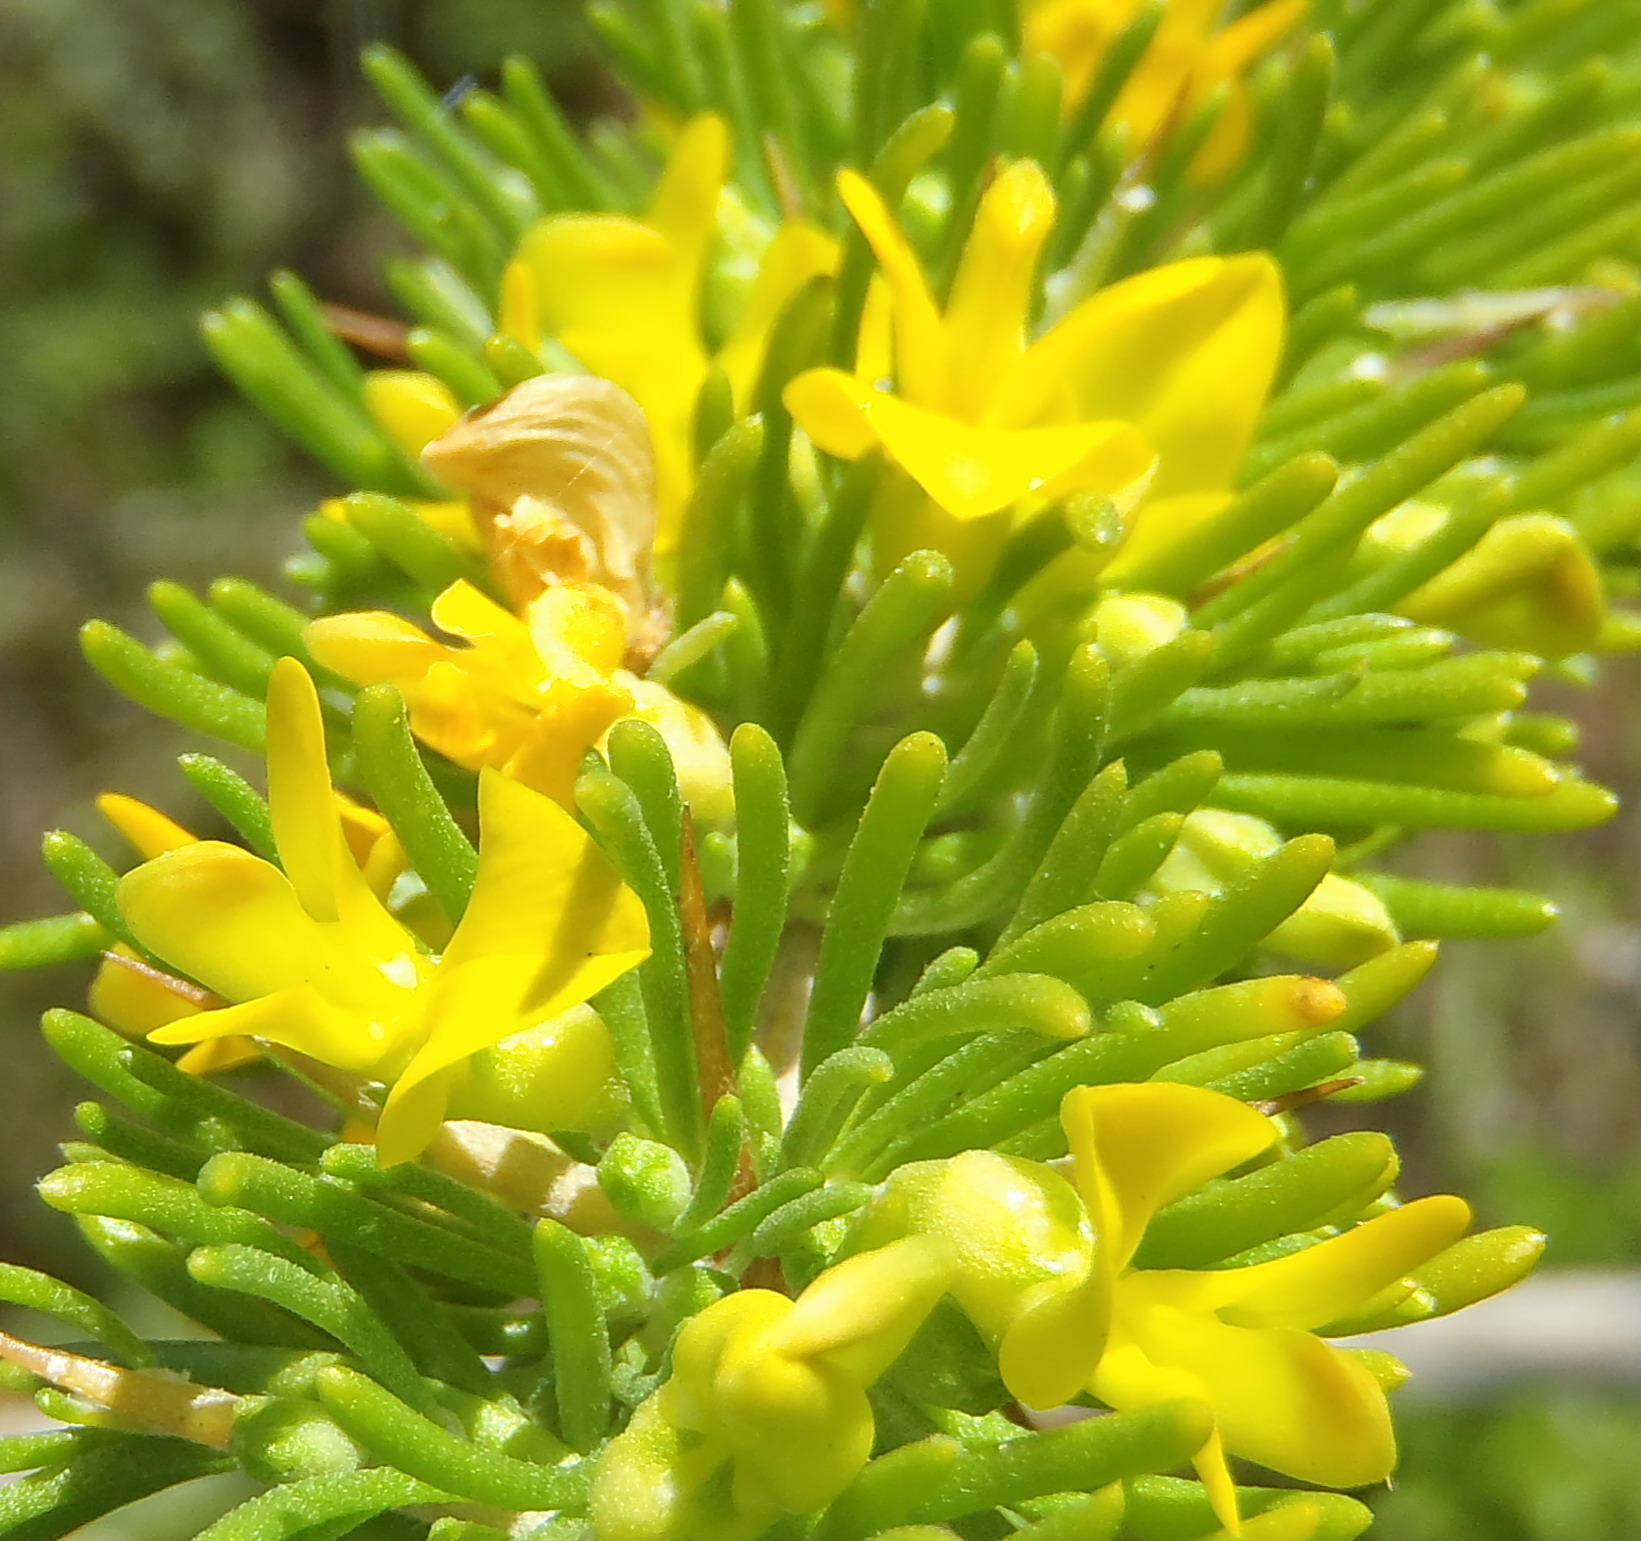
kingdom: Plantae
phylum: Tracheophyta
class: Magnoliopsida
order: Fabales
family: Fabaceae
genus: Aspalathus
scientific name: Aspalathus spinosa
